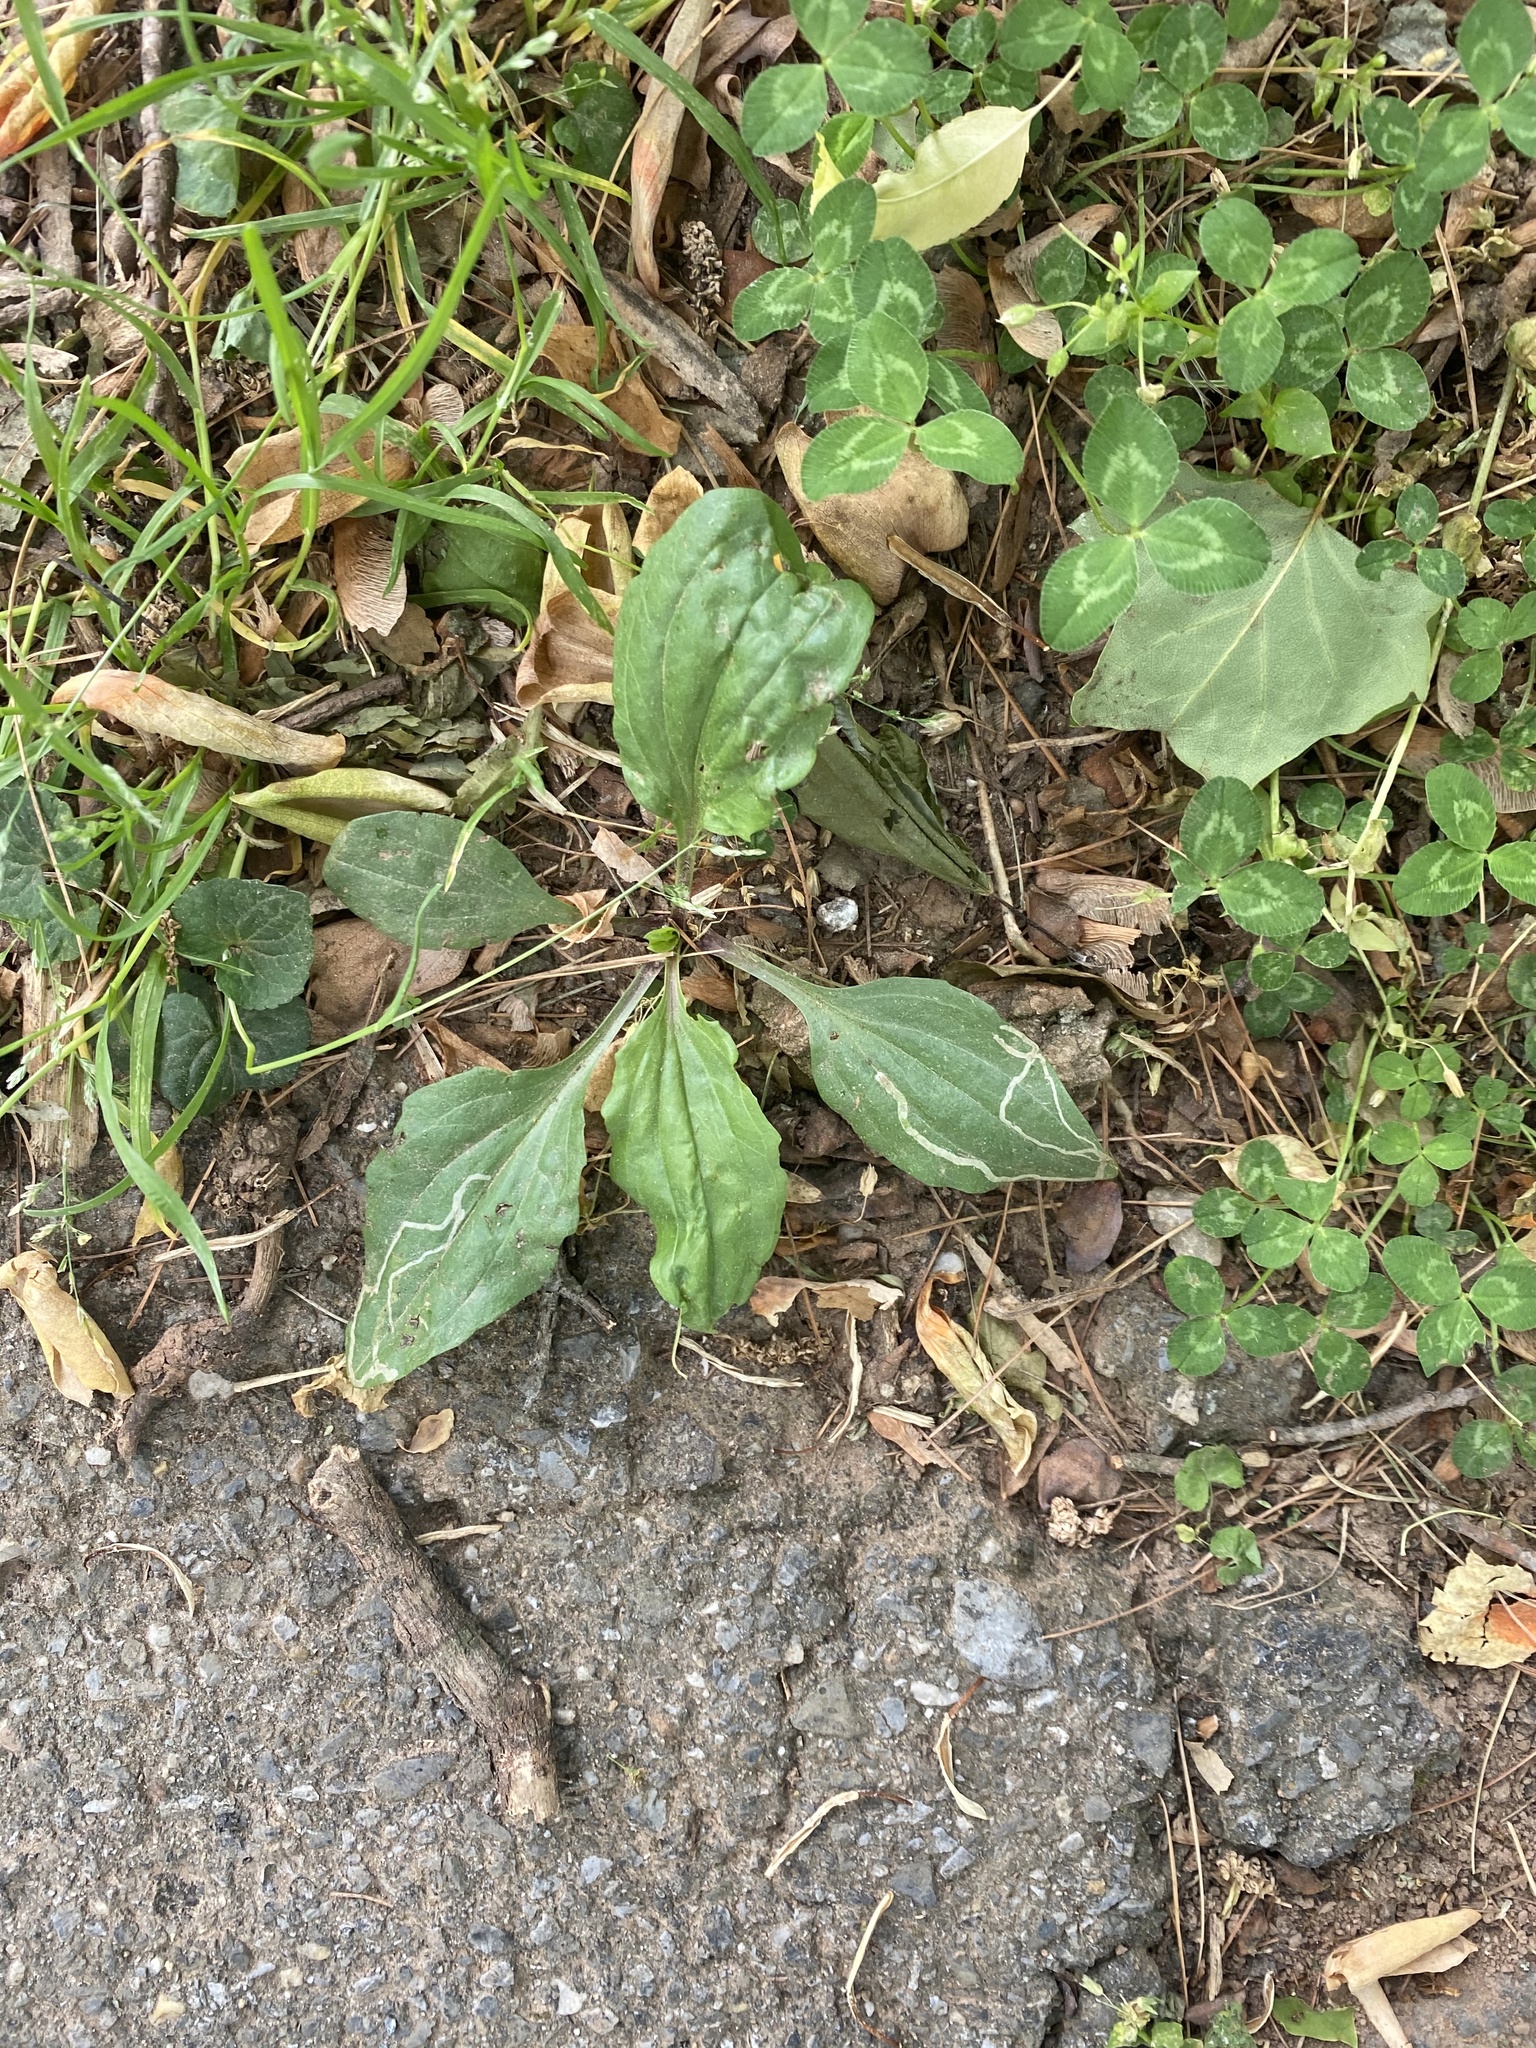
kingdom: Plantae
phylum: Tracheophyta
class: Magnoliopsida
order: Lamiales
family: Plantaginaceae
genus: Plantago
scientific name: Plantago rugelii
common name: American plantain
